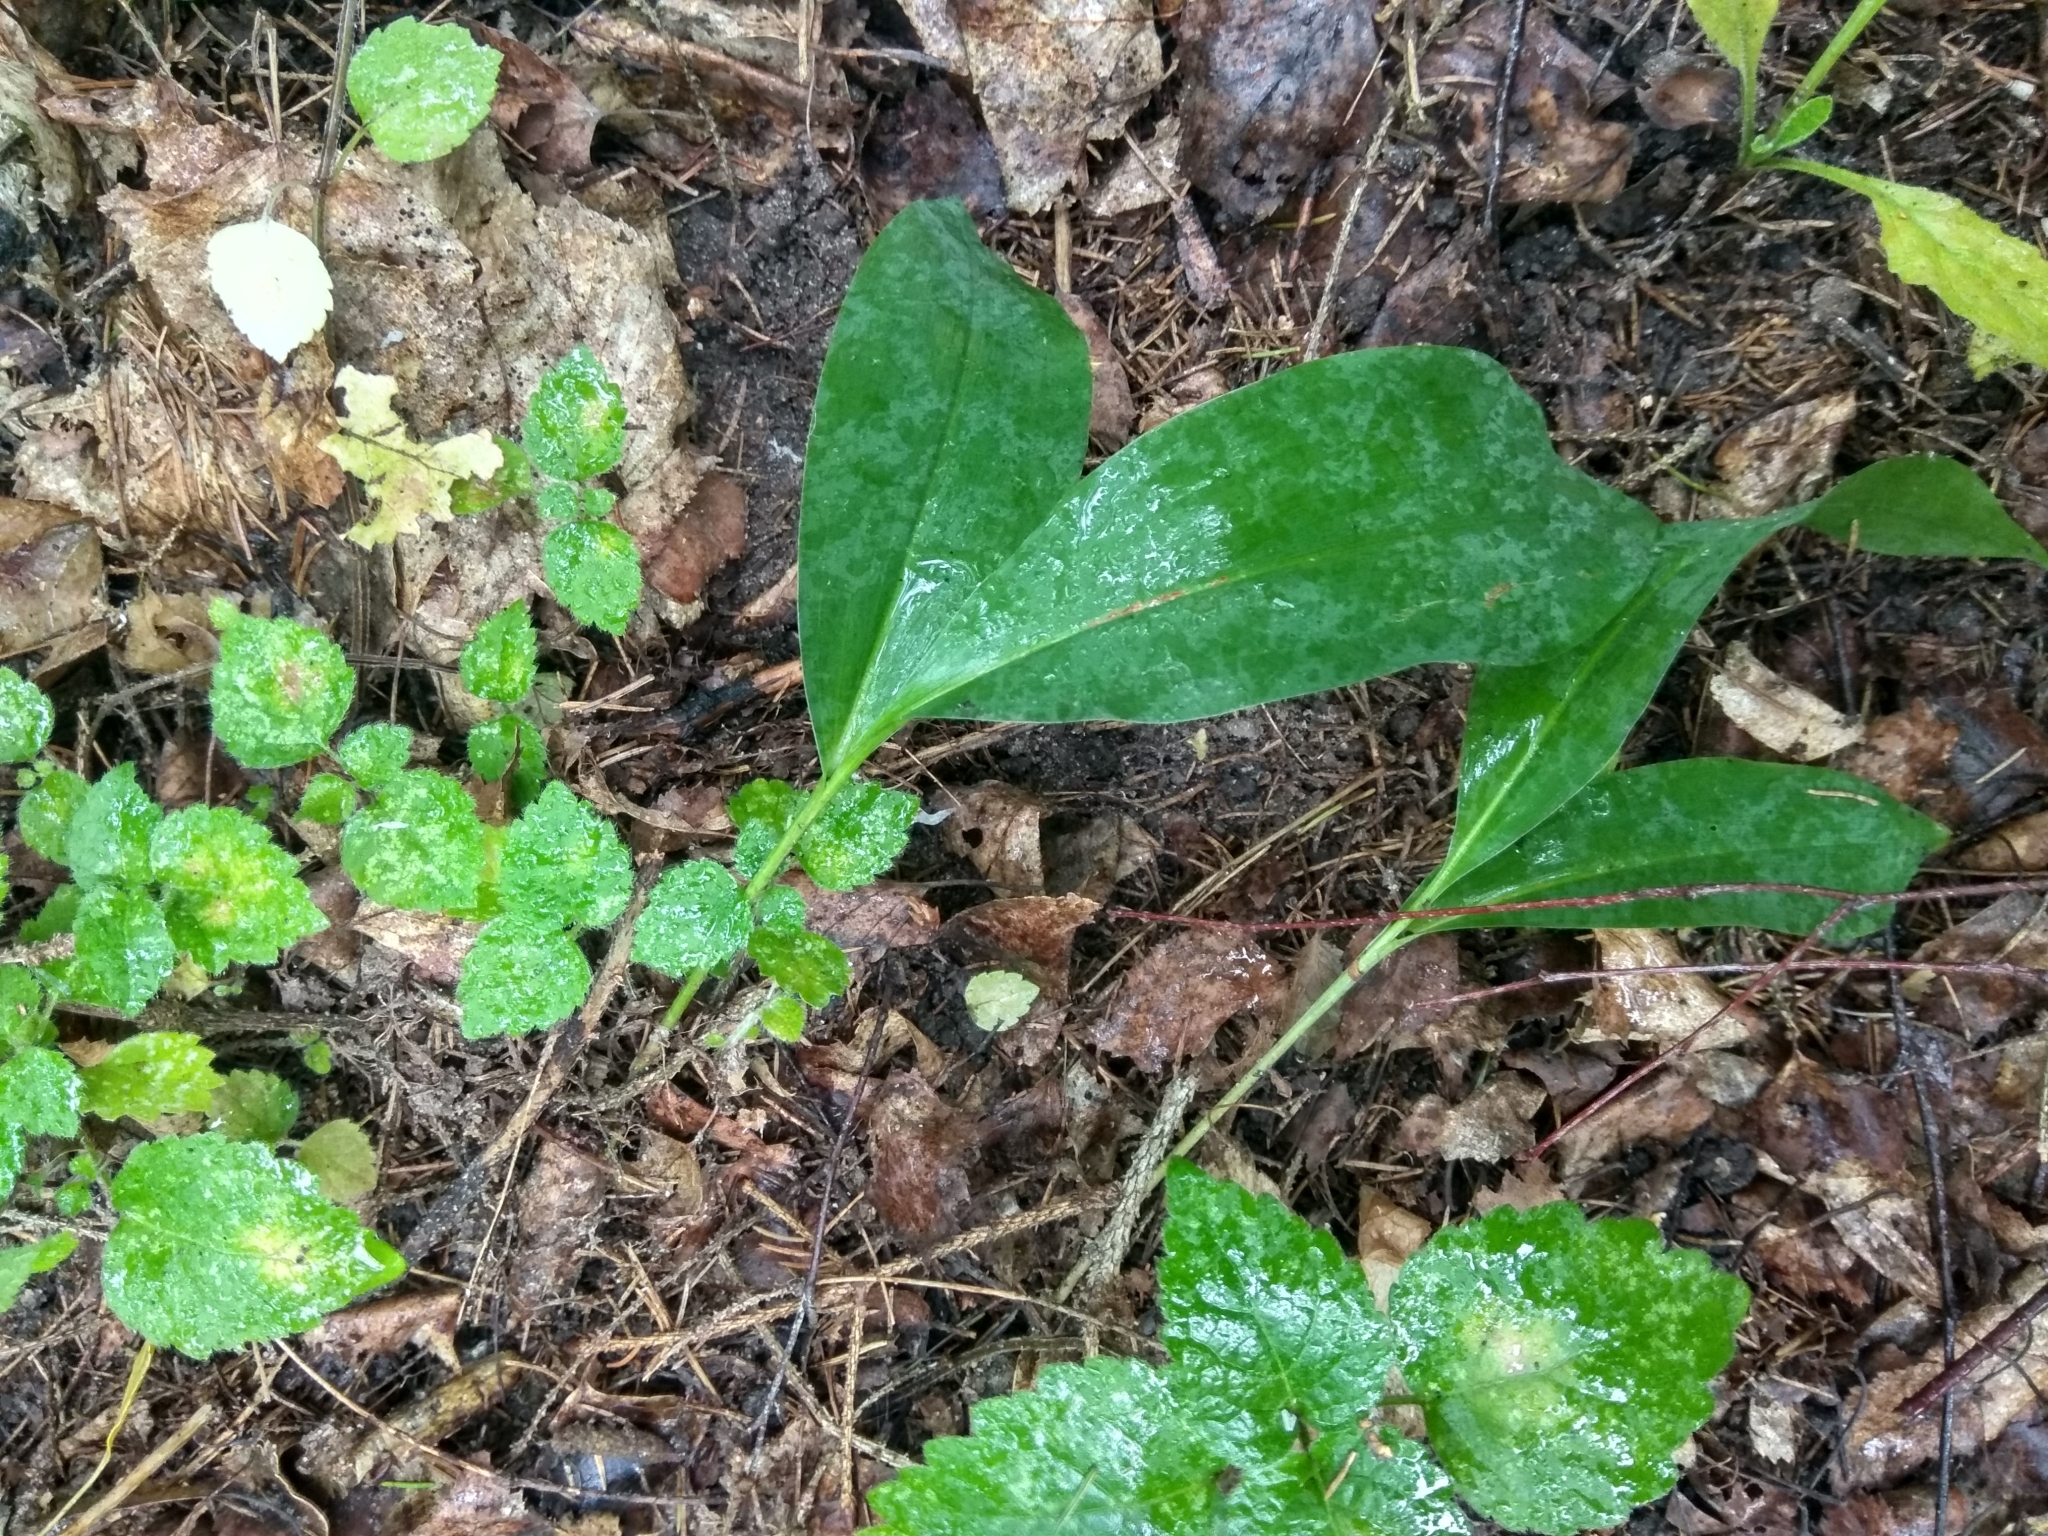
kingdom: Plantae
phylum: Tracheophyta
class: Liliopsida
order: Asparagales
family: Asparagaceae
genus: Convallaria
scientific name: Convallaria majalis
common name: Lily-of-the-valley
